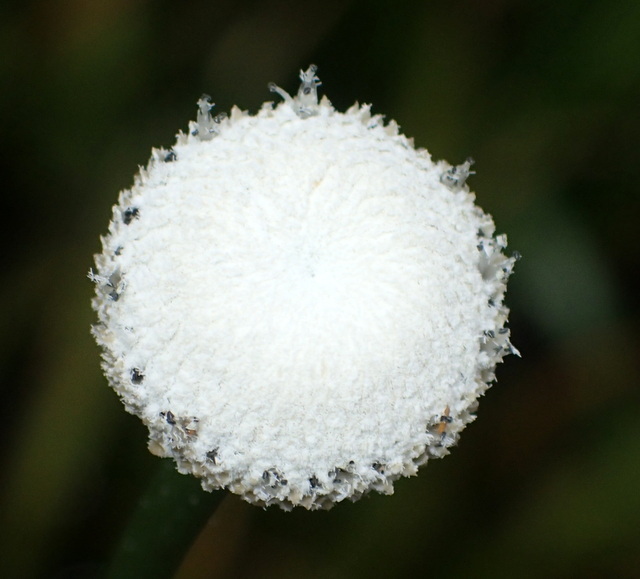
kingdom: Plantae
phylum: Tracheophyta
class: Liliopsida
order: Poales
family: Eriocaulaceae
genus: Eriocaulon
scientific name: Eriocaulon decangulare
